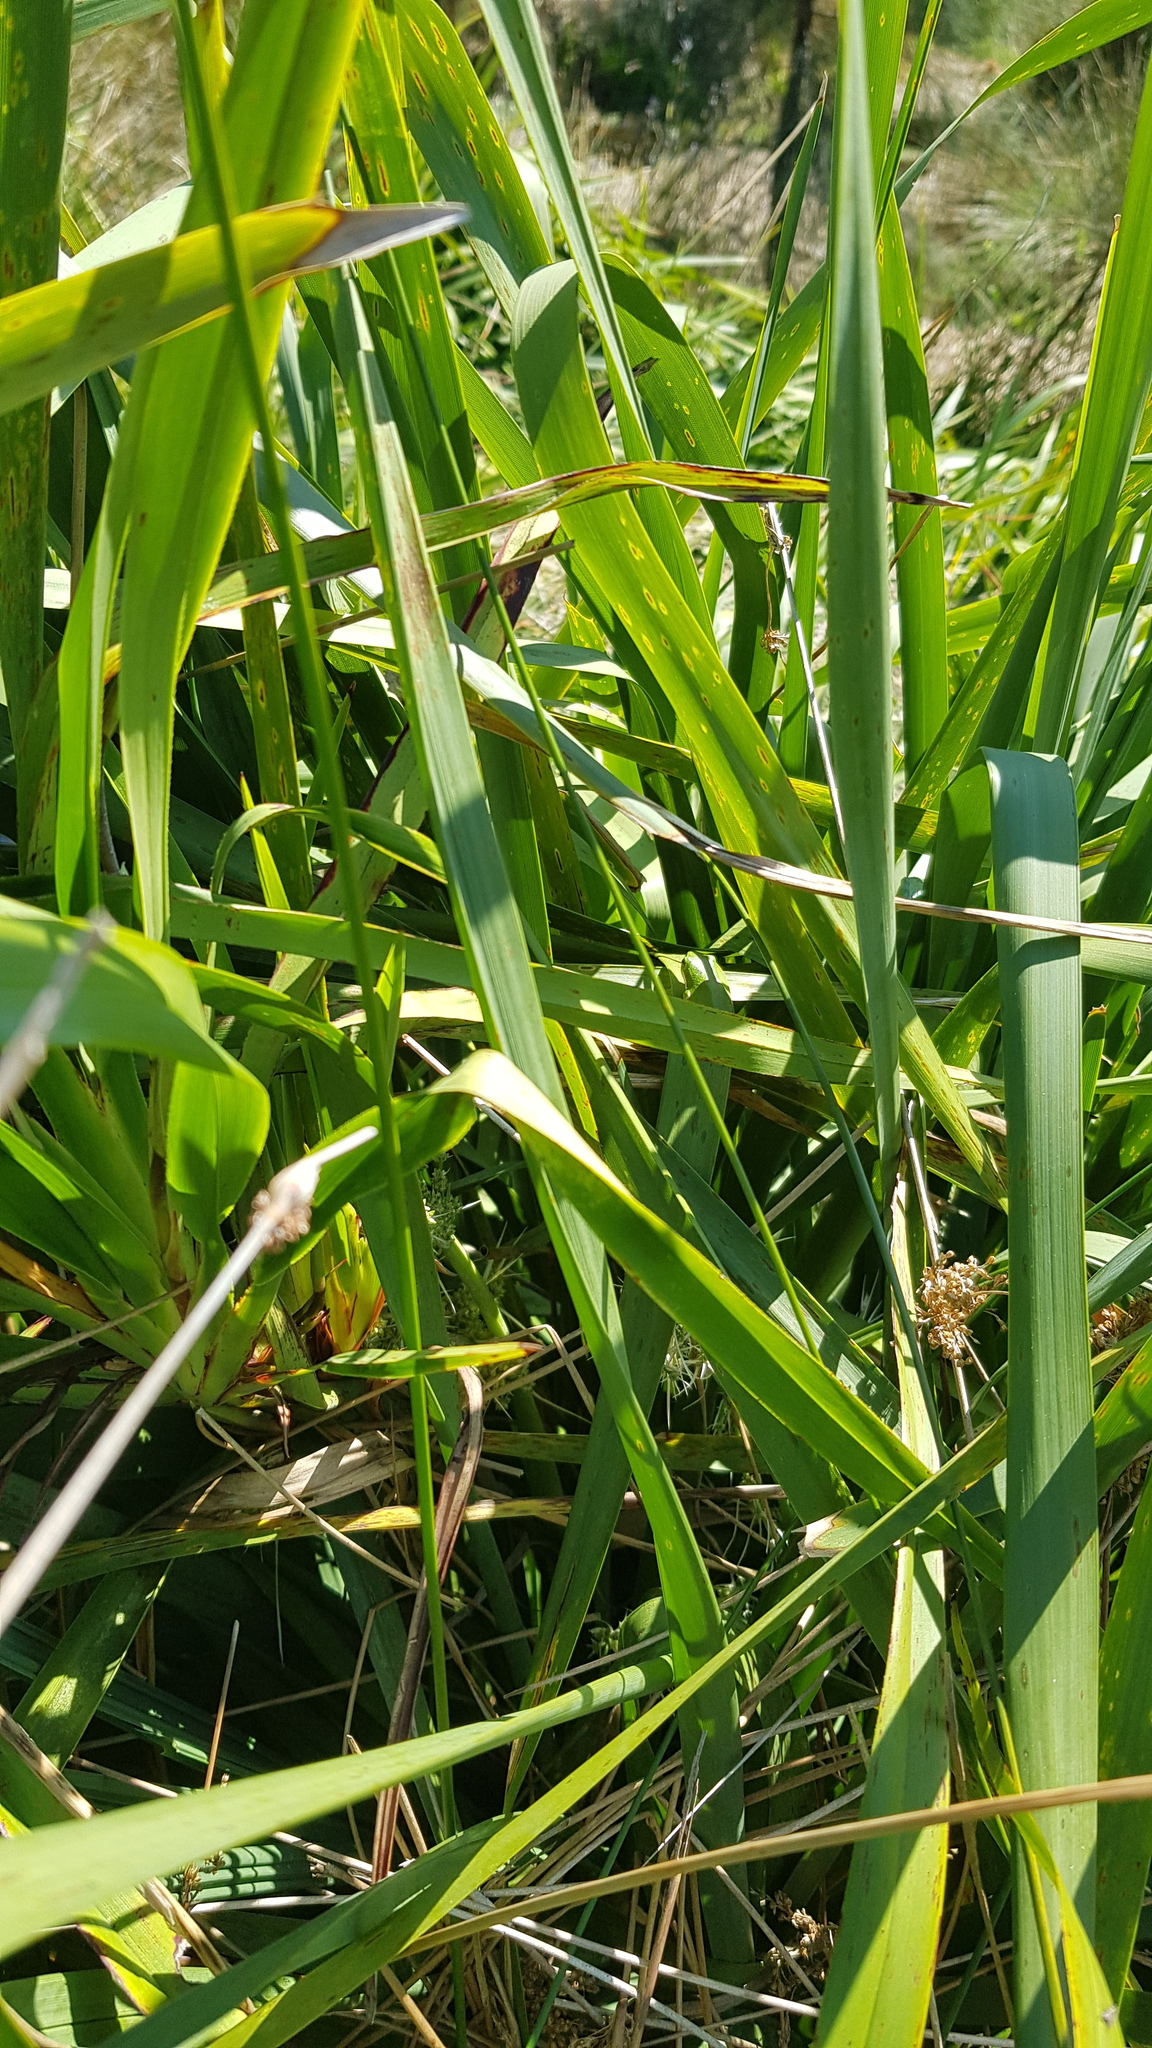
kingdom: Animalia
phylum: Chordata
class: Amphibia
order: Anura
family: Pelodryadidae
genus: Litoria
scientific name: Litoria fallax
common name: Eastern dwarf treefrog
